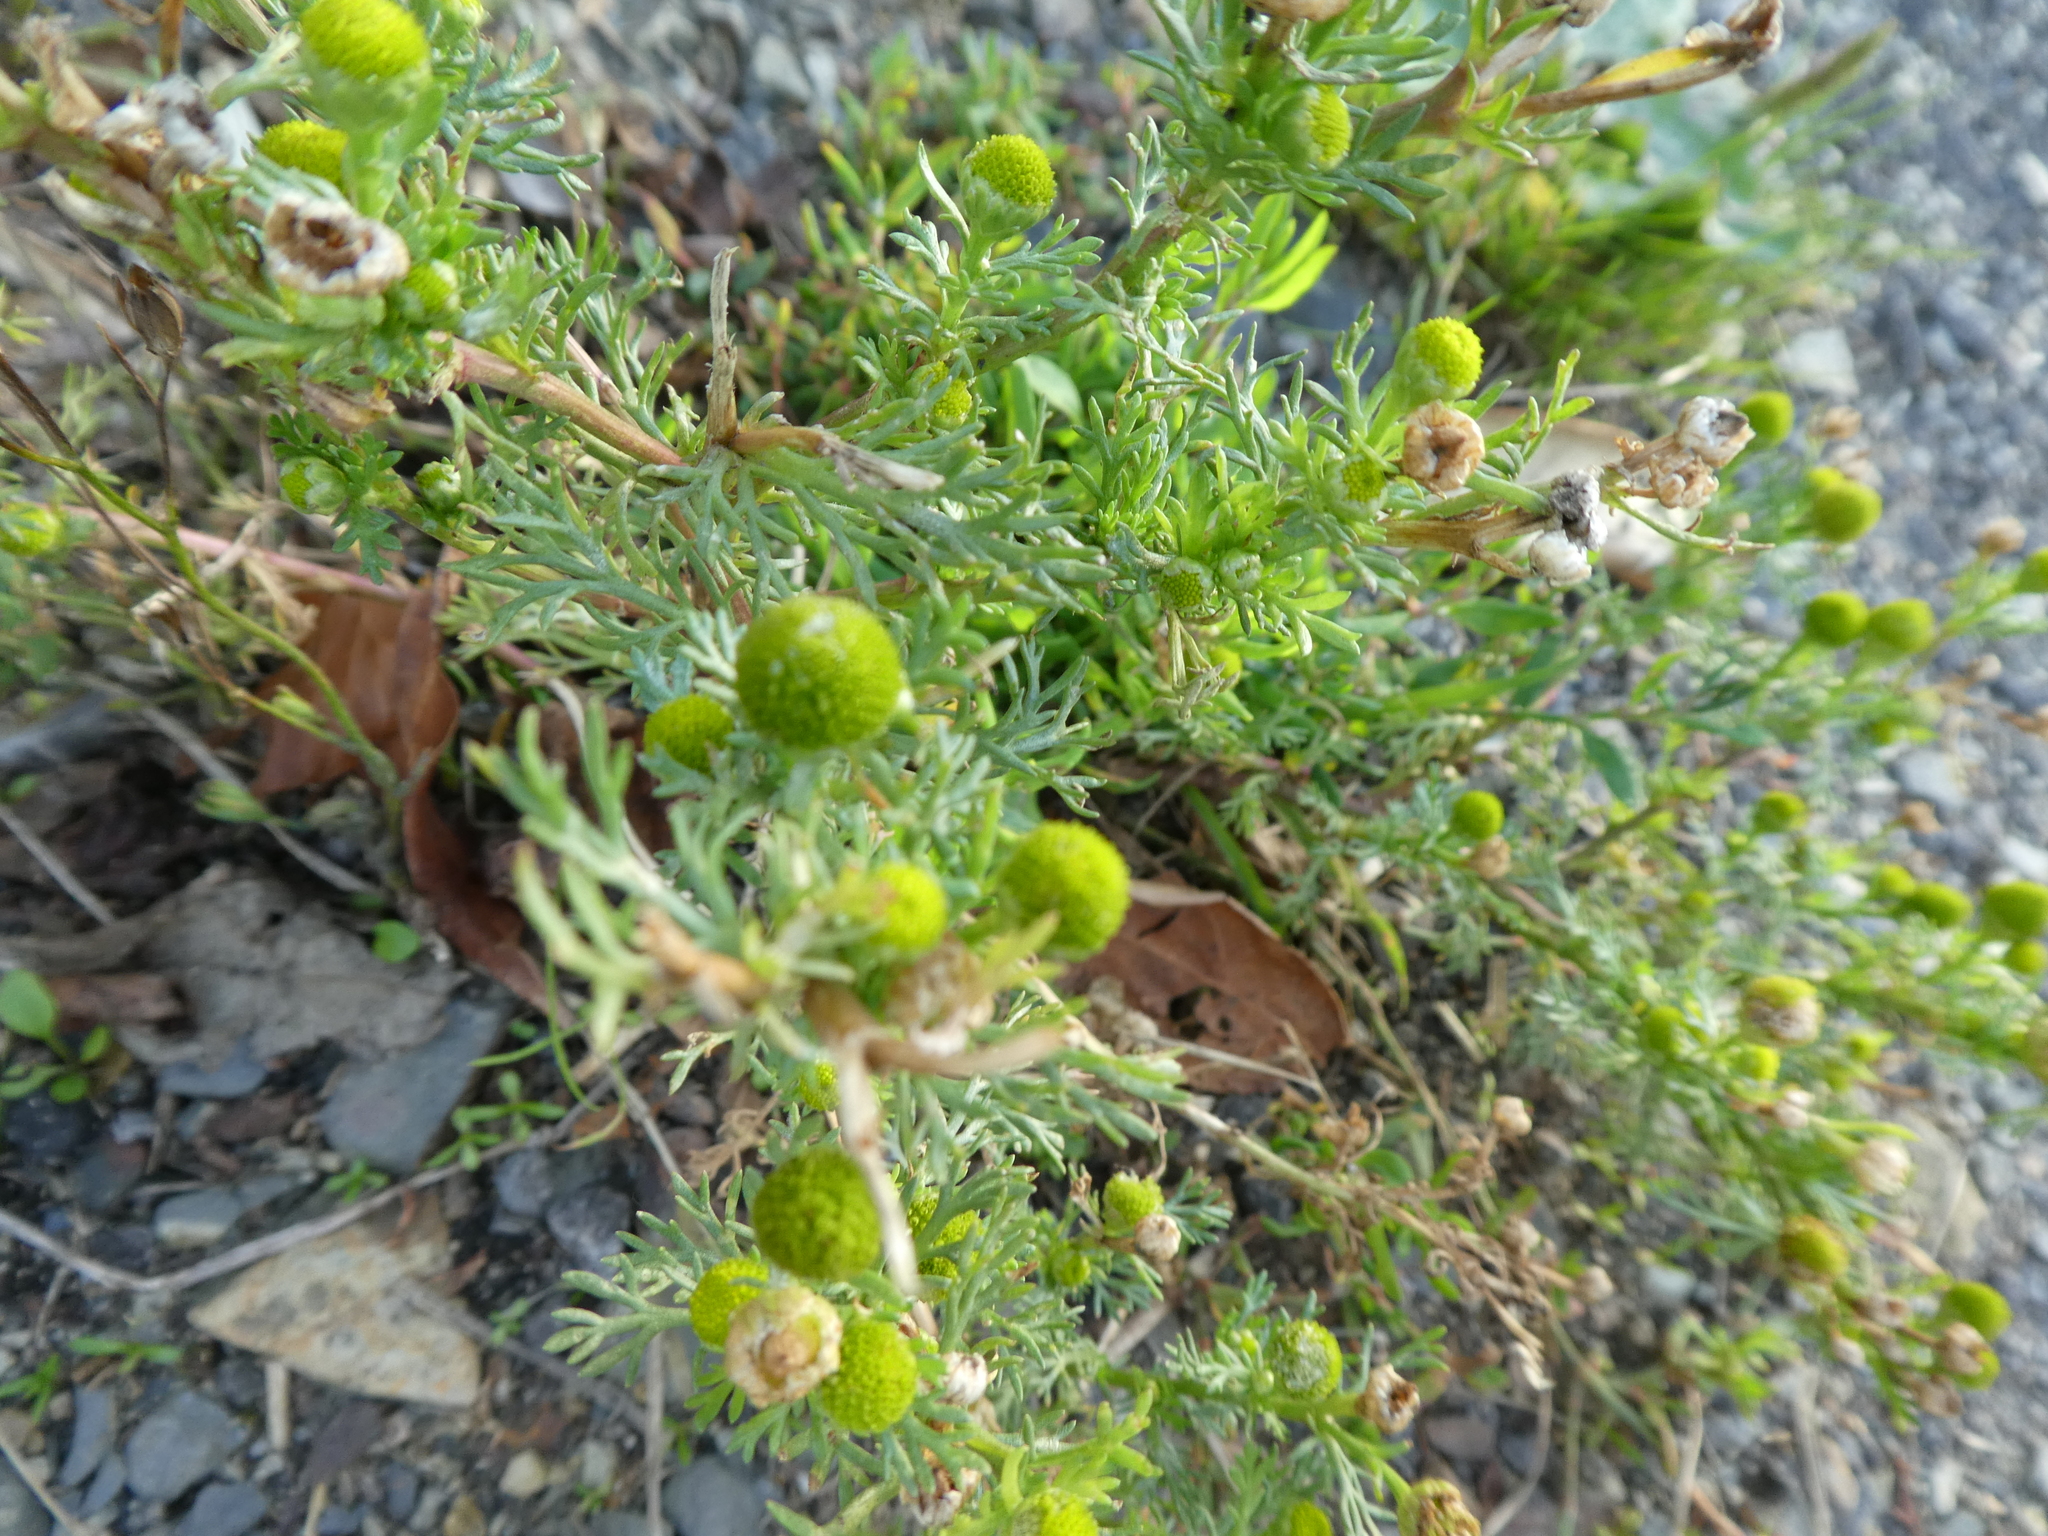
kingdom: Plantae
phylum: Tracheophyta
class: Magnoliopsida
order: Asterales
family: Asteraceae
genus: Matricaria
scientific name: Matricaria discoidea
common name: Disc mayweed
